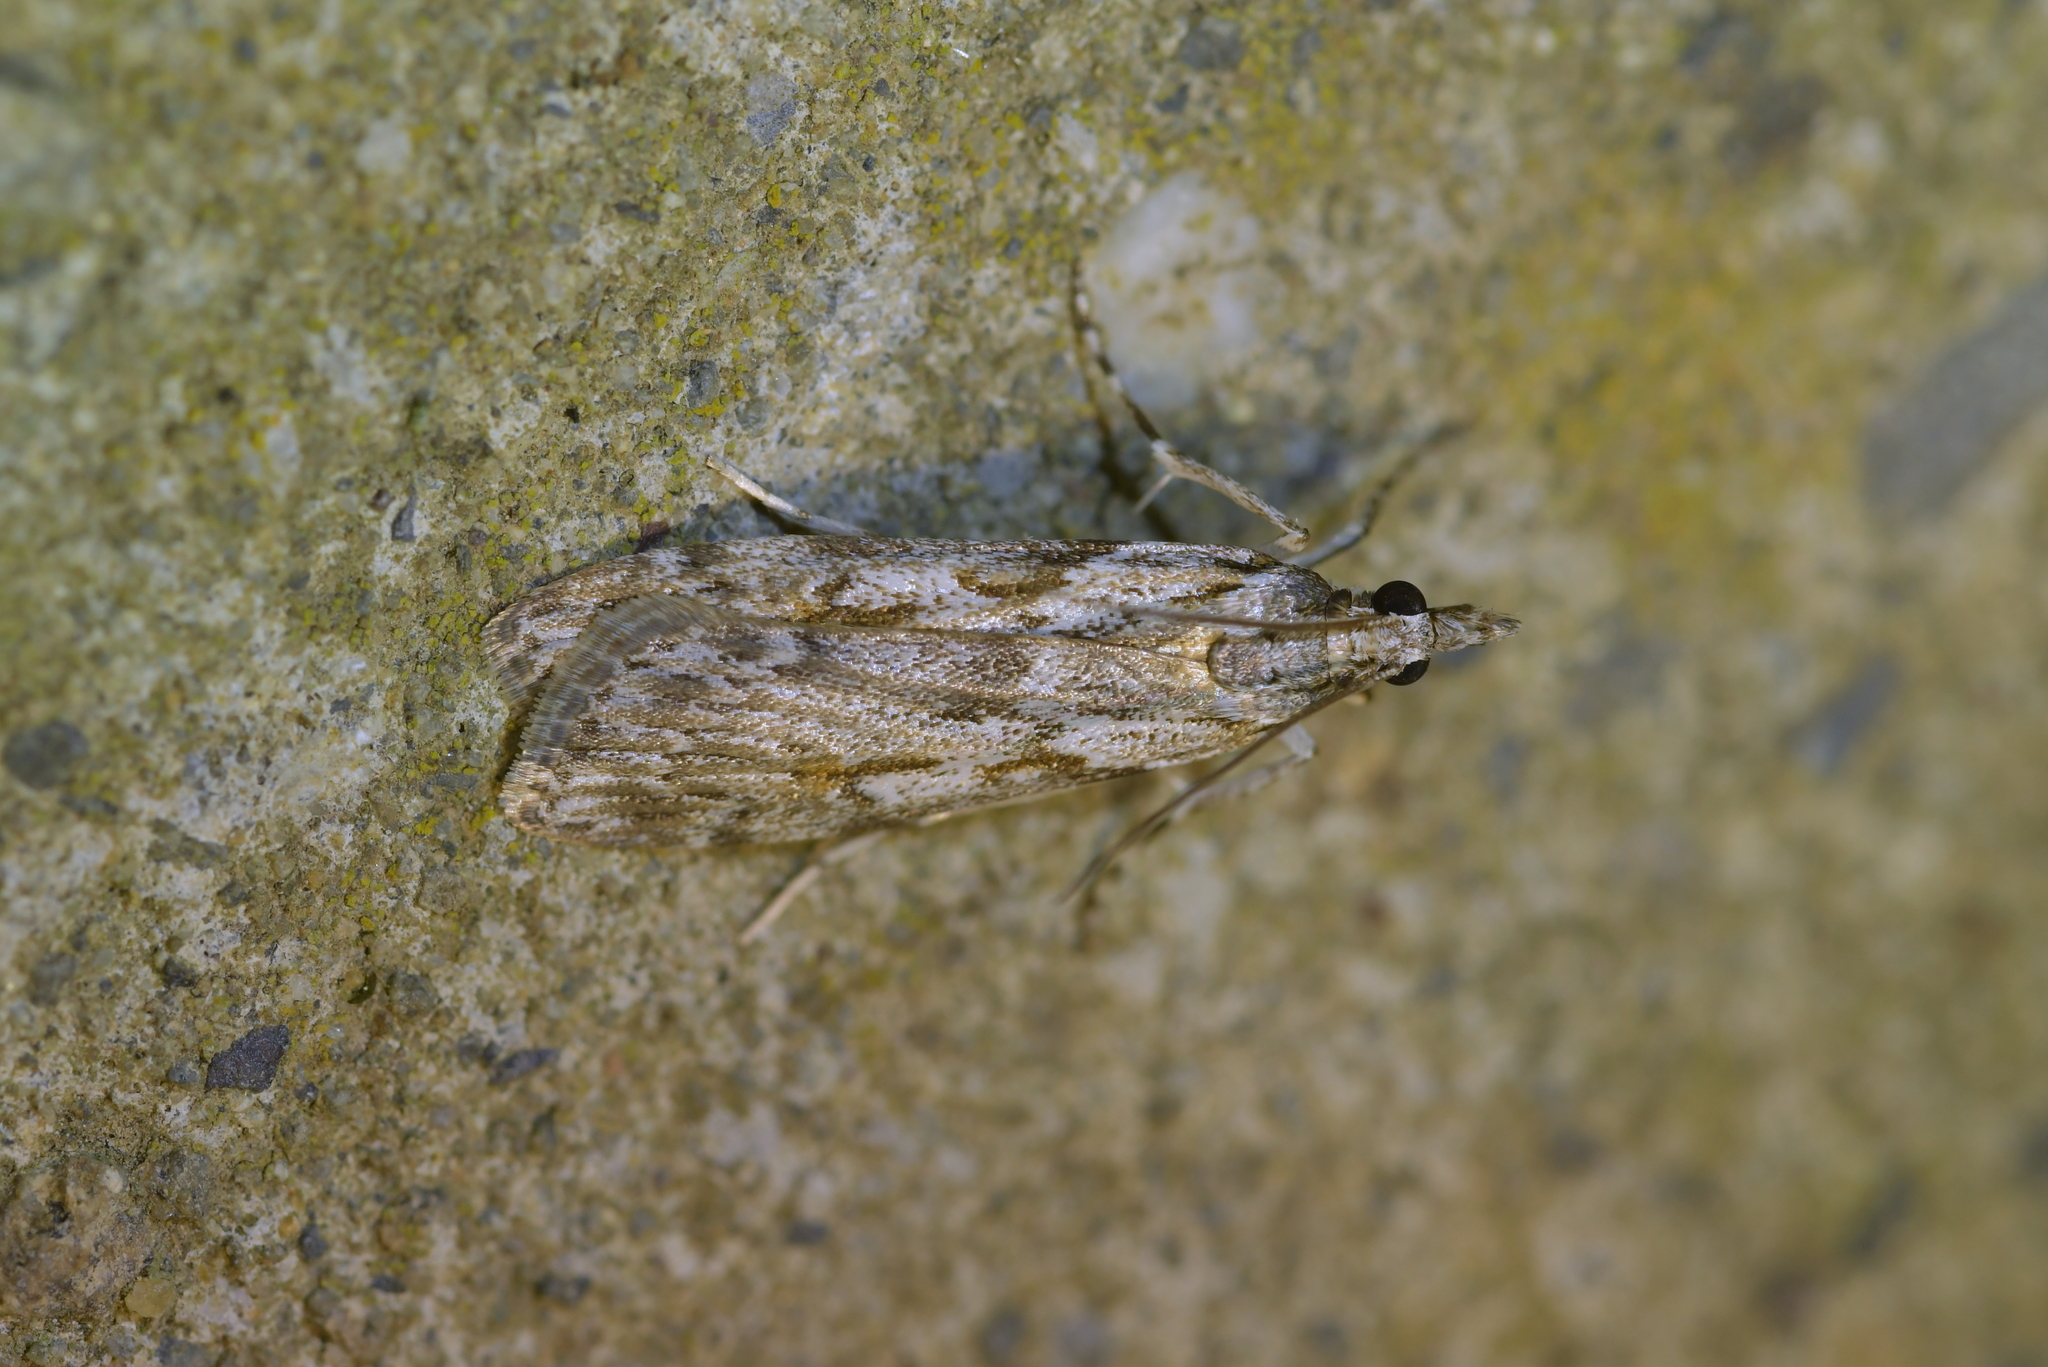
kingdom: Animalia
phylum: Arthropoda
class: Insecta
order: Lepidoptera
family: Crambidae
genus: Scoparia
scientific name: Scoparia halopis
